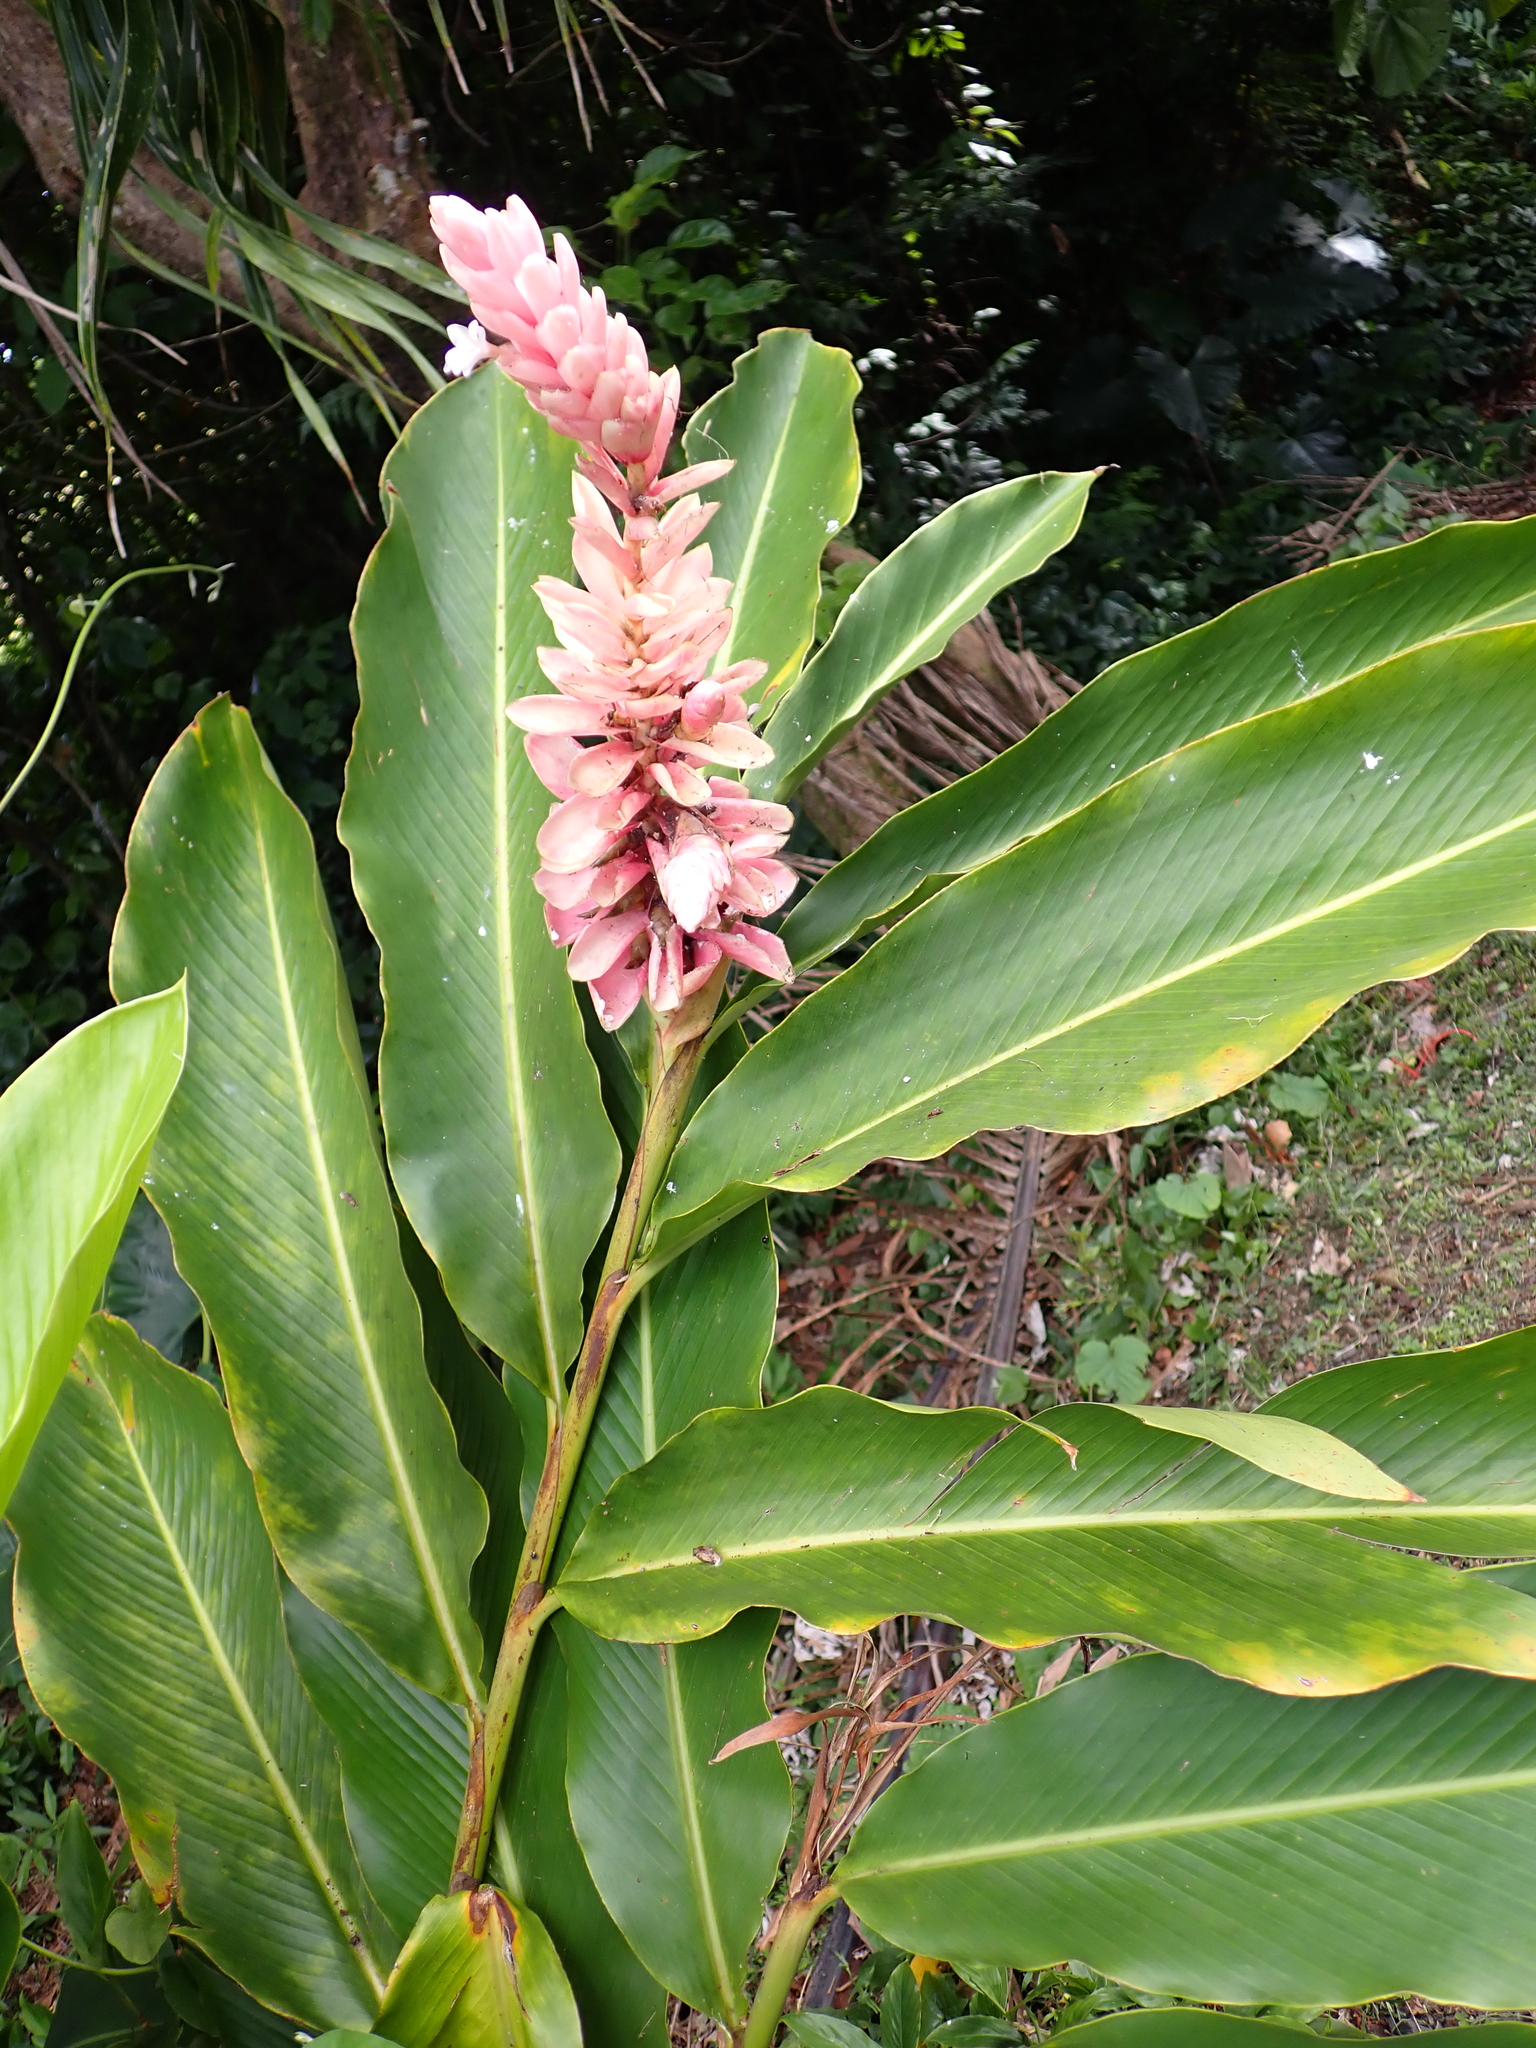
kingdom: Plantae
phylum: Tracheophyta
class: Liliopsida
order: Zingiberales
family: Zingiberaceae
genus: Alpinia
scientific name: Alpinia purpurata
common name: Red ginger
